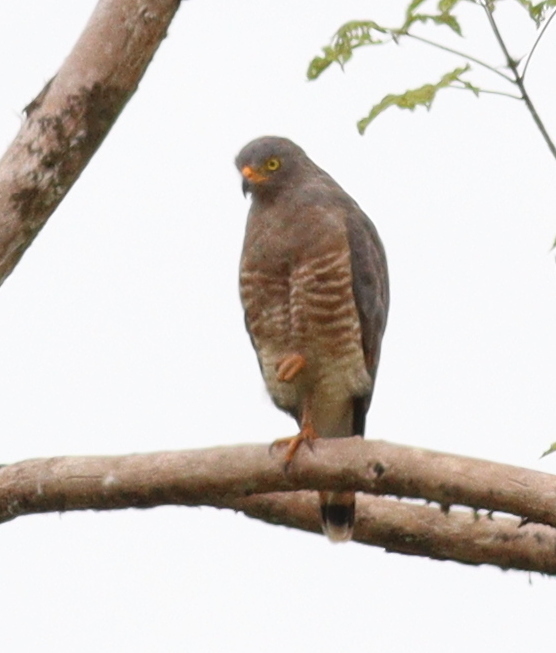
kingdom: Animalia
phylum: Chordata
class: Aves
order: Accipitriformes
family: Accipitridae
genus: Rupornis
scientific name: Rupornis magnirostris
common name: Roadside hawk
